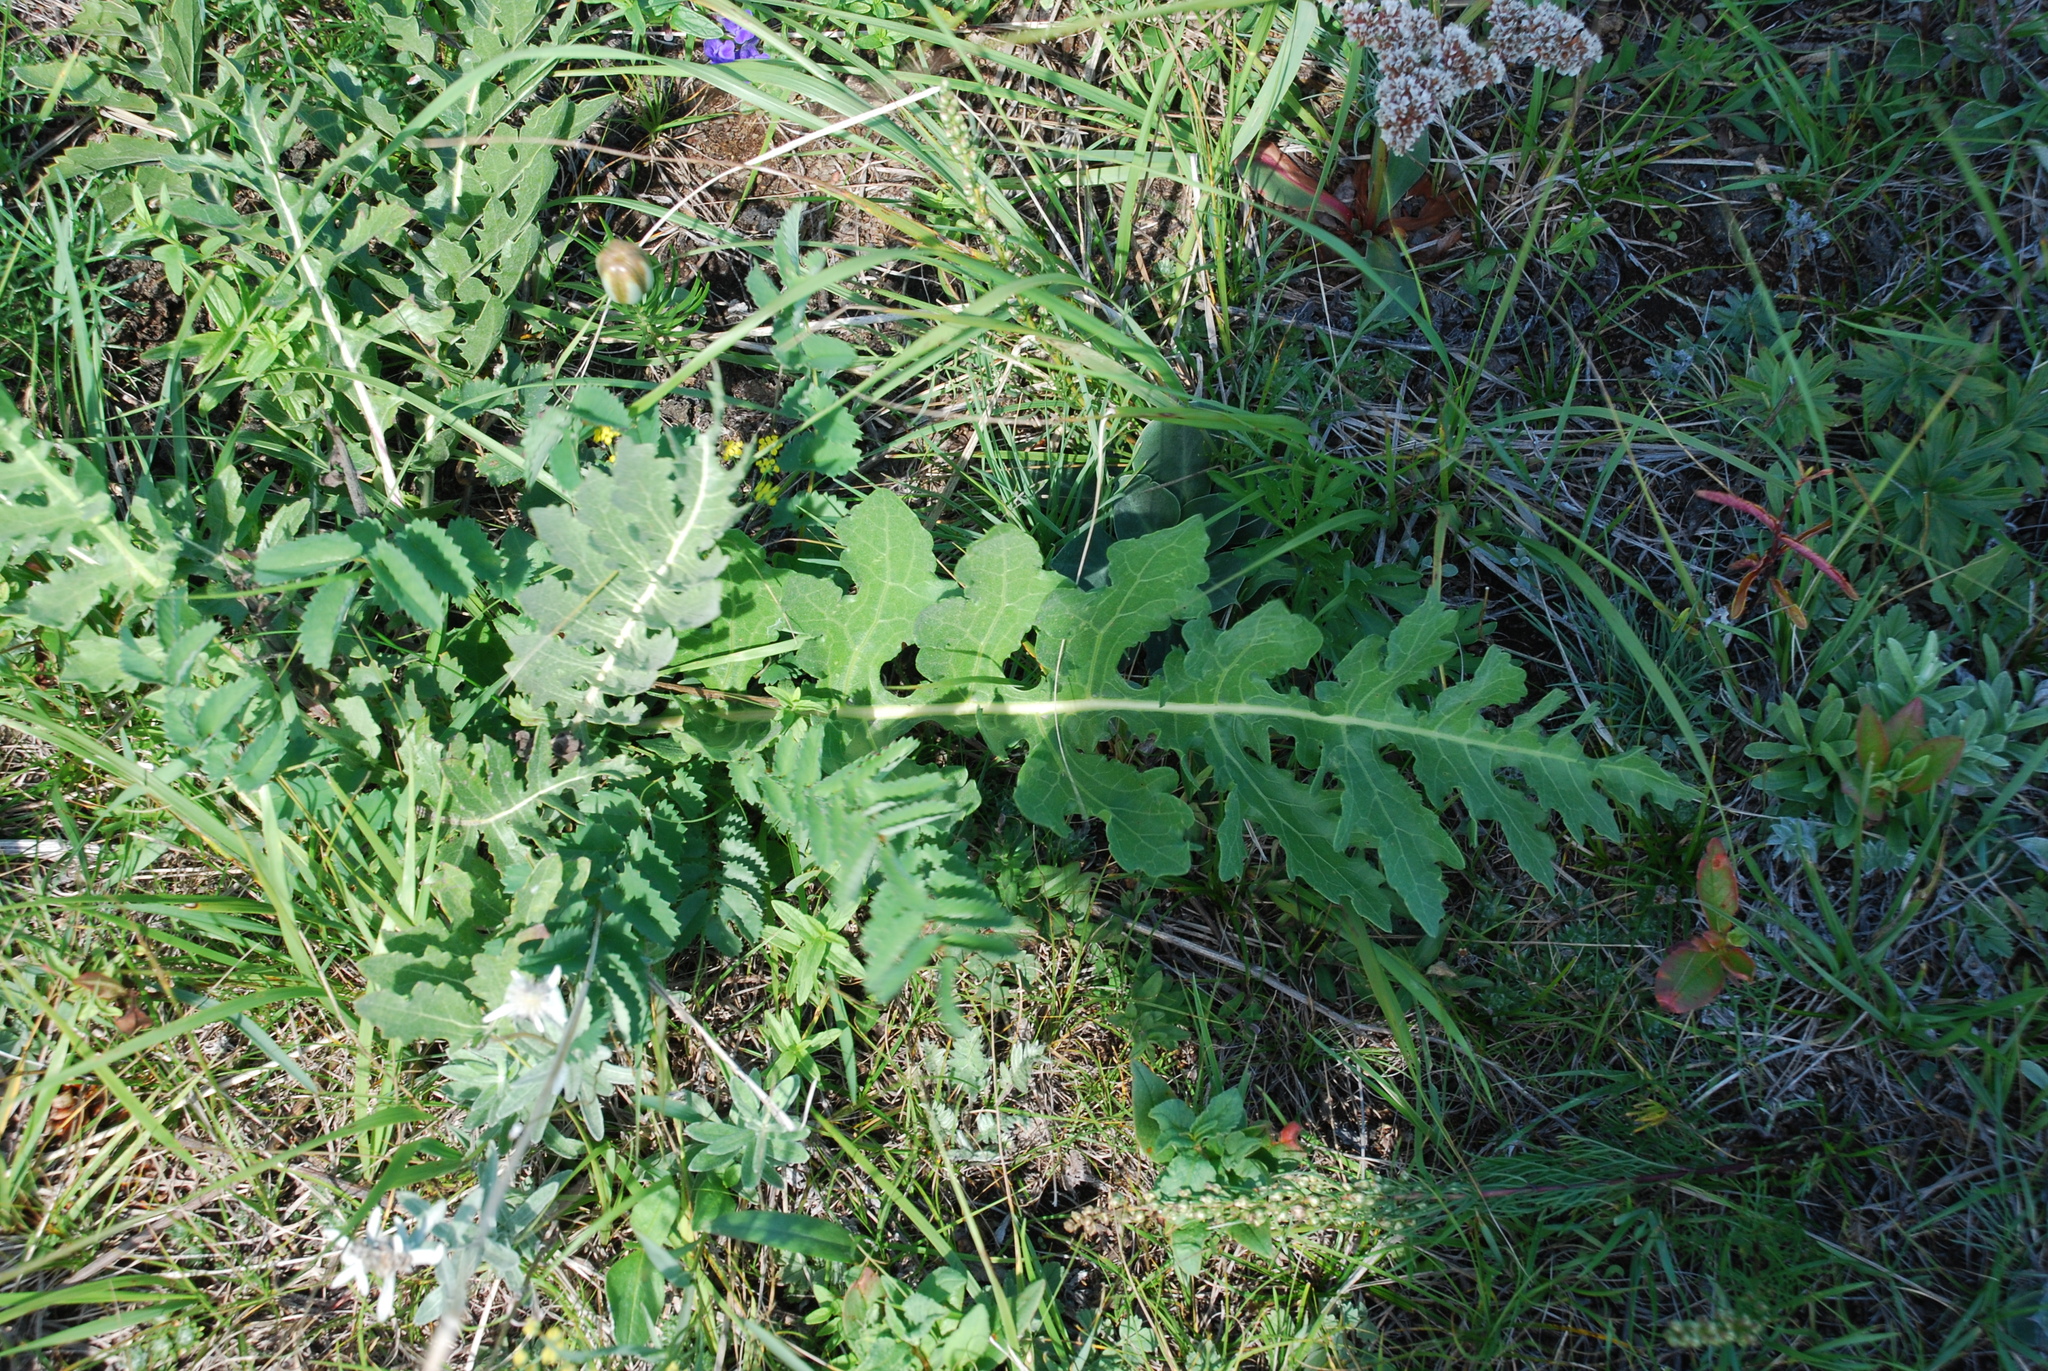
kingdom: Plantae
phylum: Tracheophyta
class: Magnoliopsida
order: Asterales
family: Asteraceae
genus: Leuzea
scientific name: Leuzea uniflora
